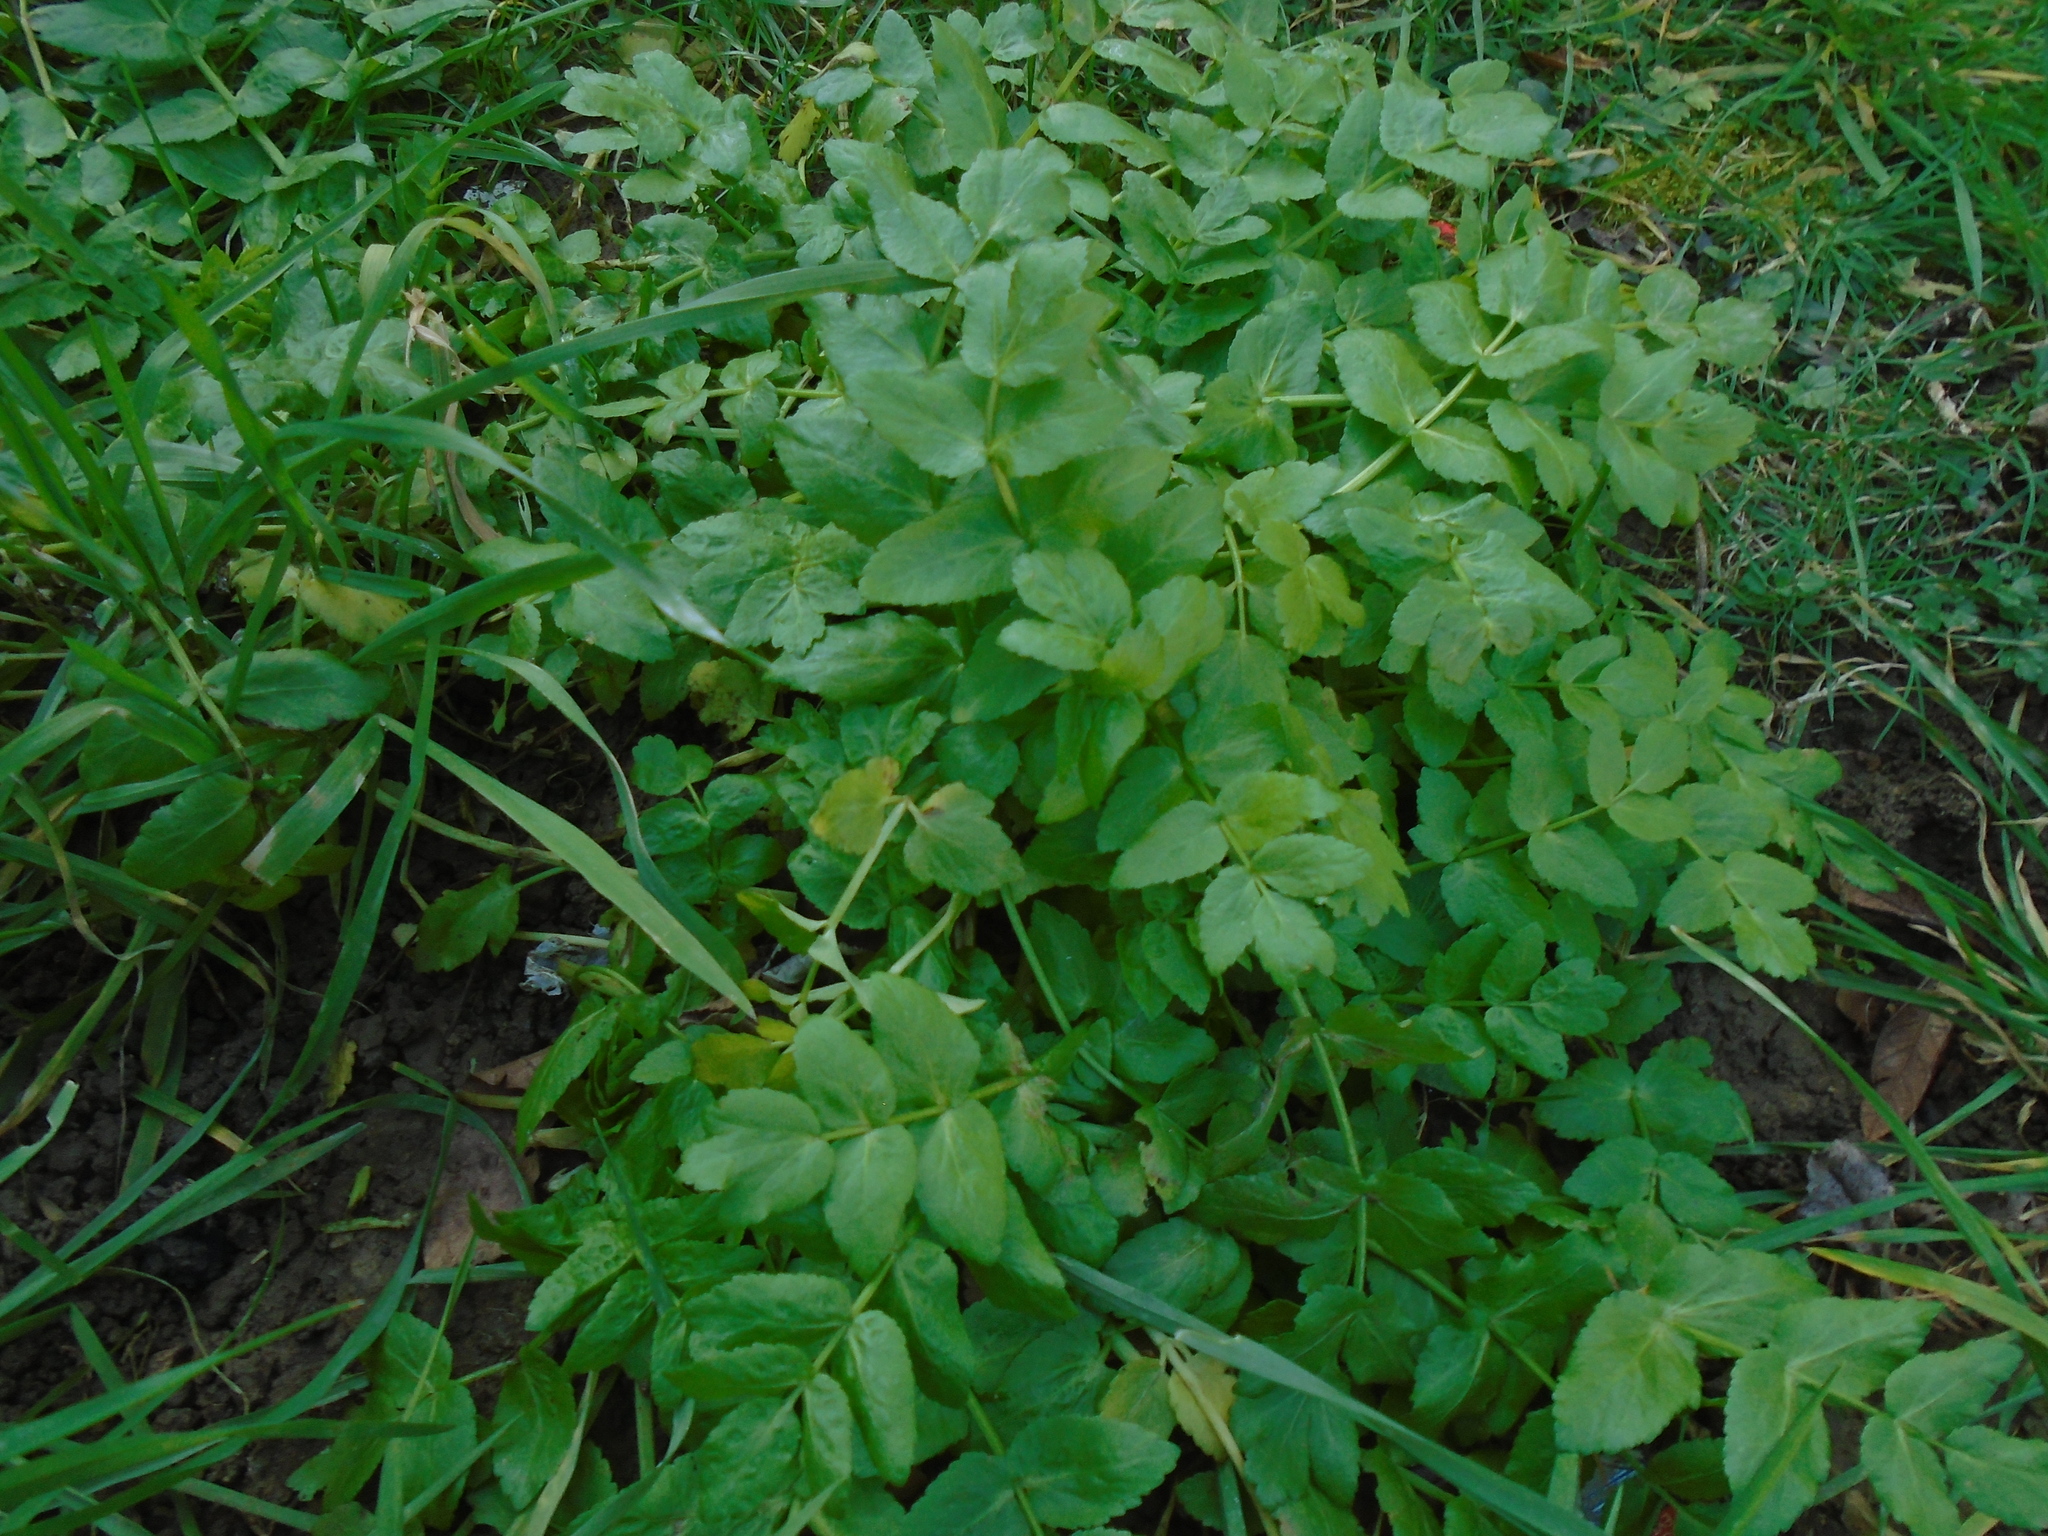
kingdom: Plantae
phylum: Tracheophyta
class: Magnoliopsida
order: Apiales
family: Apiaceae
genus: Helosciadium
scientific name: Helosciadium nodiflorum
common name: Fool's-watercress
